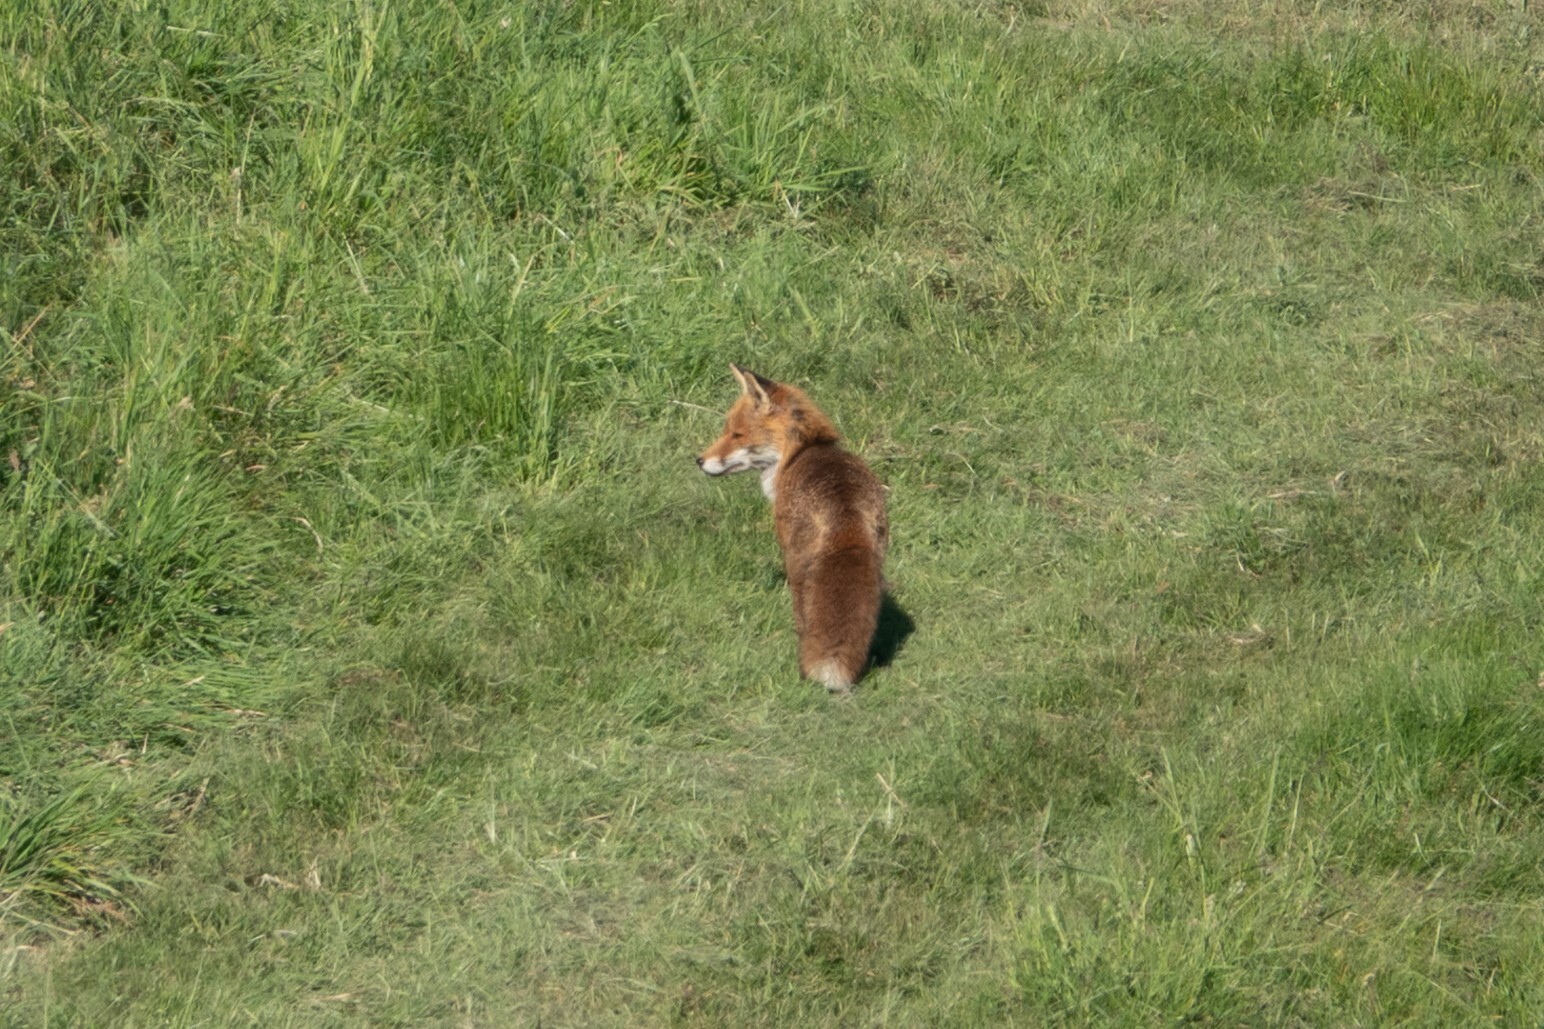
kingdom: Animalia
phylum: Chordata
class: Mammalia
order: Carnivora
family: Canidae
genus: Vulpes
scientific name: Vulpes vulpes
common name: Red fox
